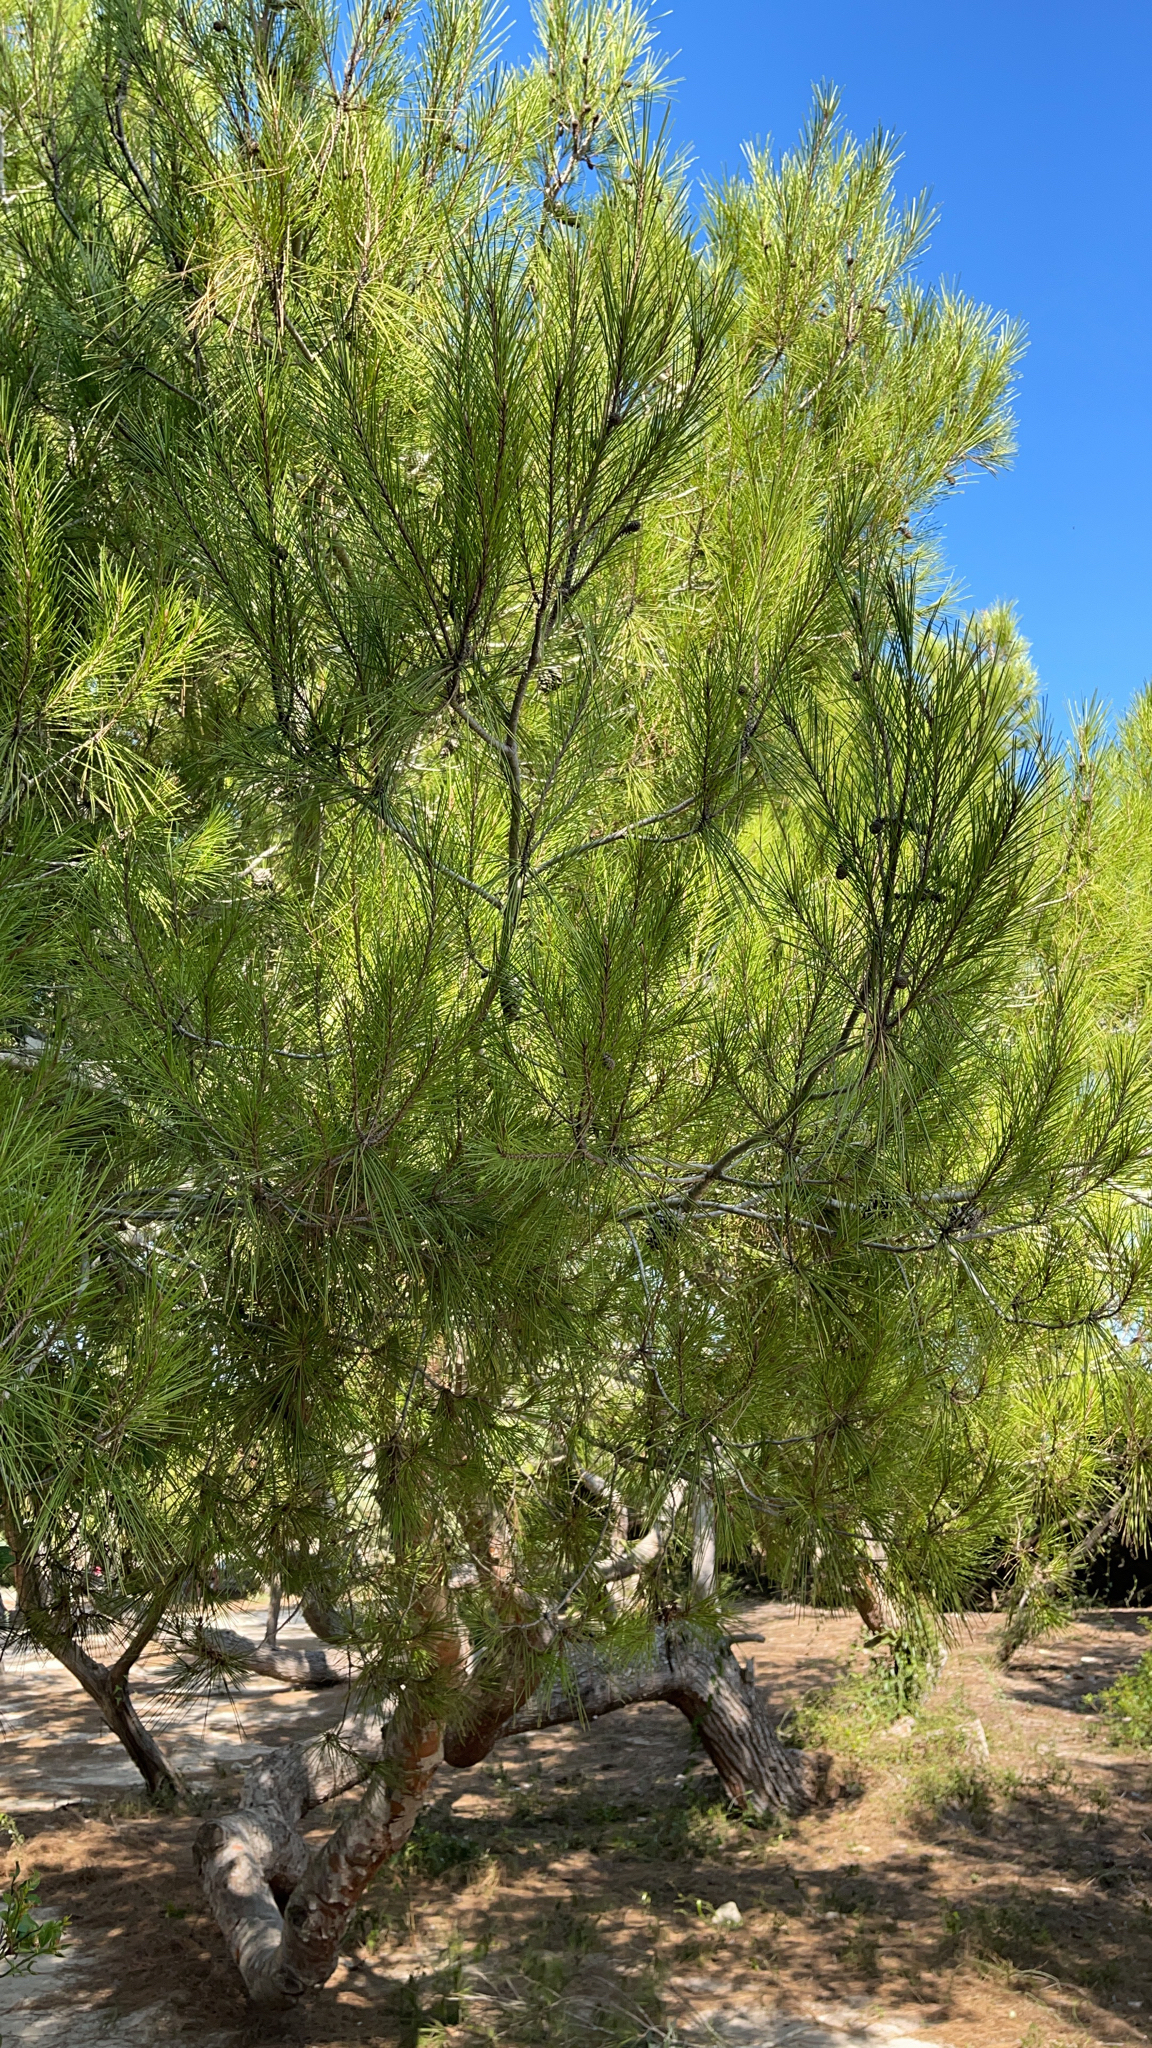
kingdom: Plantae
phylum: Tracheophyta
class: Pinopsida
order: Pinales
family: Pinaceae
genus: Pinus
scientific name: Pinus halepensis
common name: Aleppo pine
